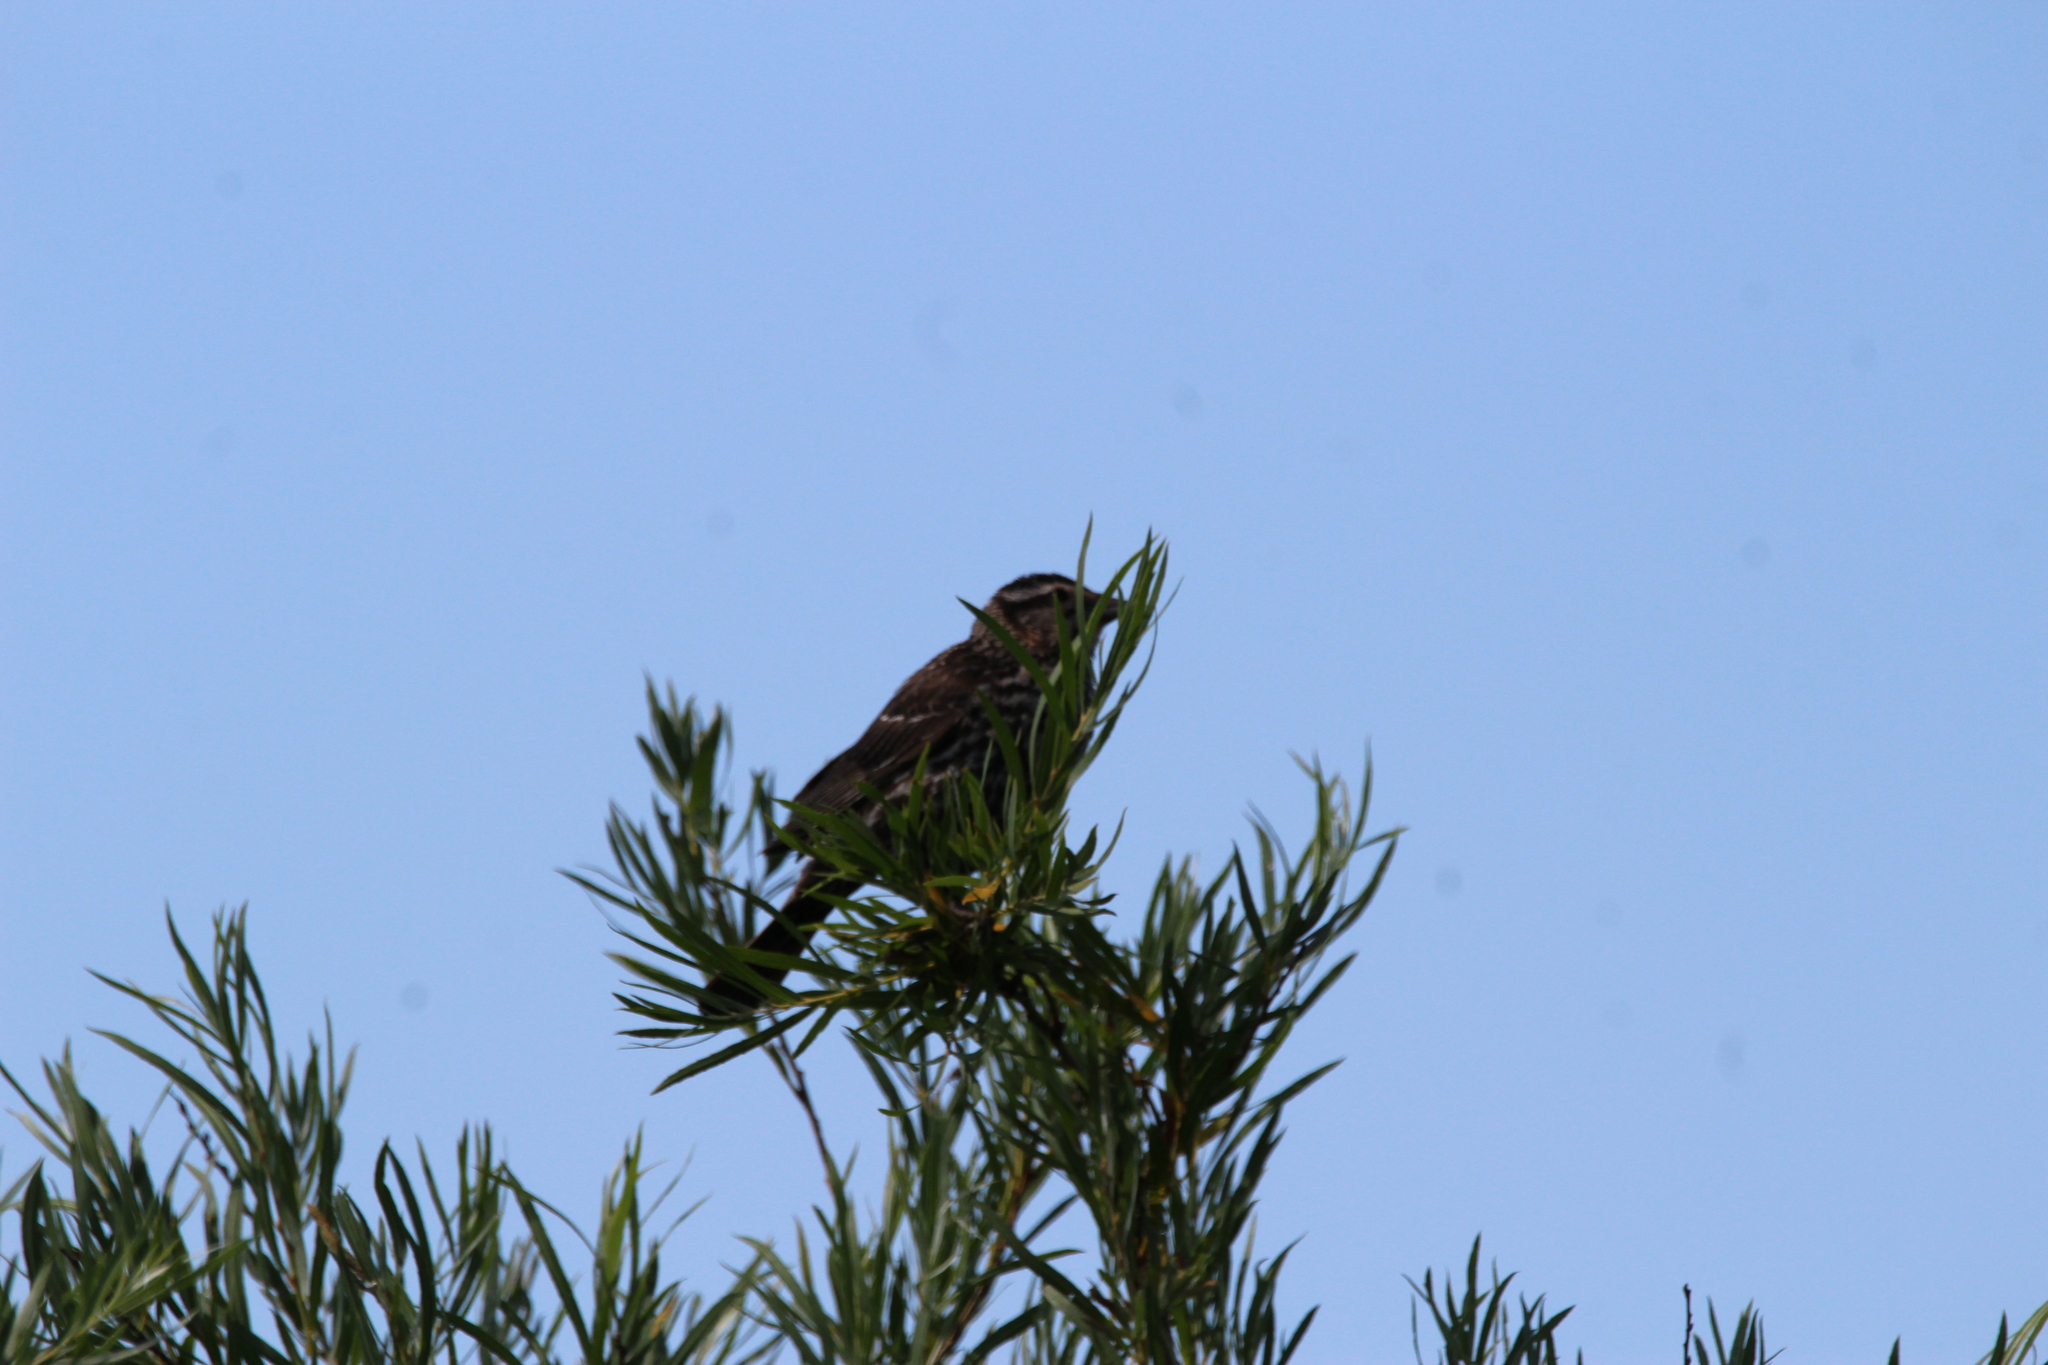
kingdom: Animalia
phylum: Chordata
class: Aves
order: Passeriformes
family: Icteridae
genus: Agelaius
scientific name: Agelaius phoeniceus
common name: Red-winged blackbird
